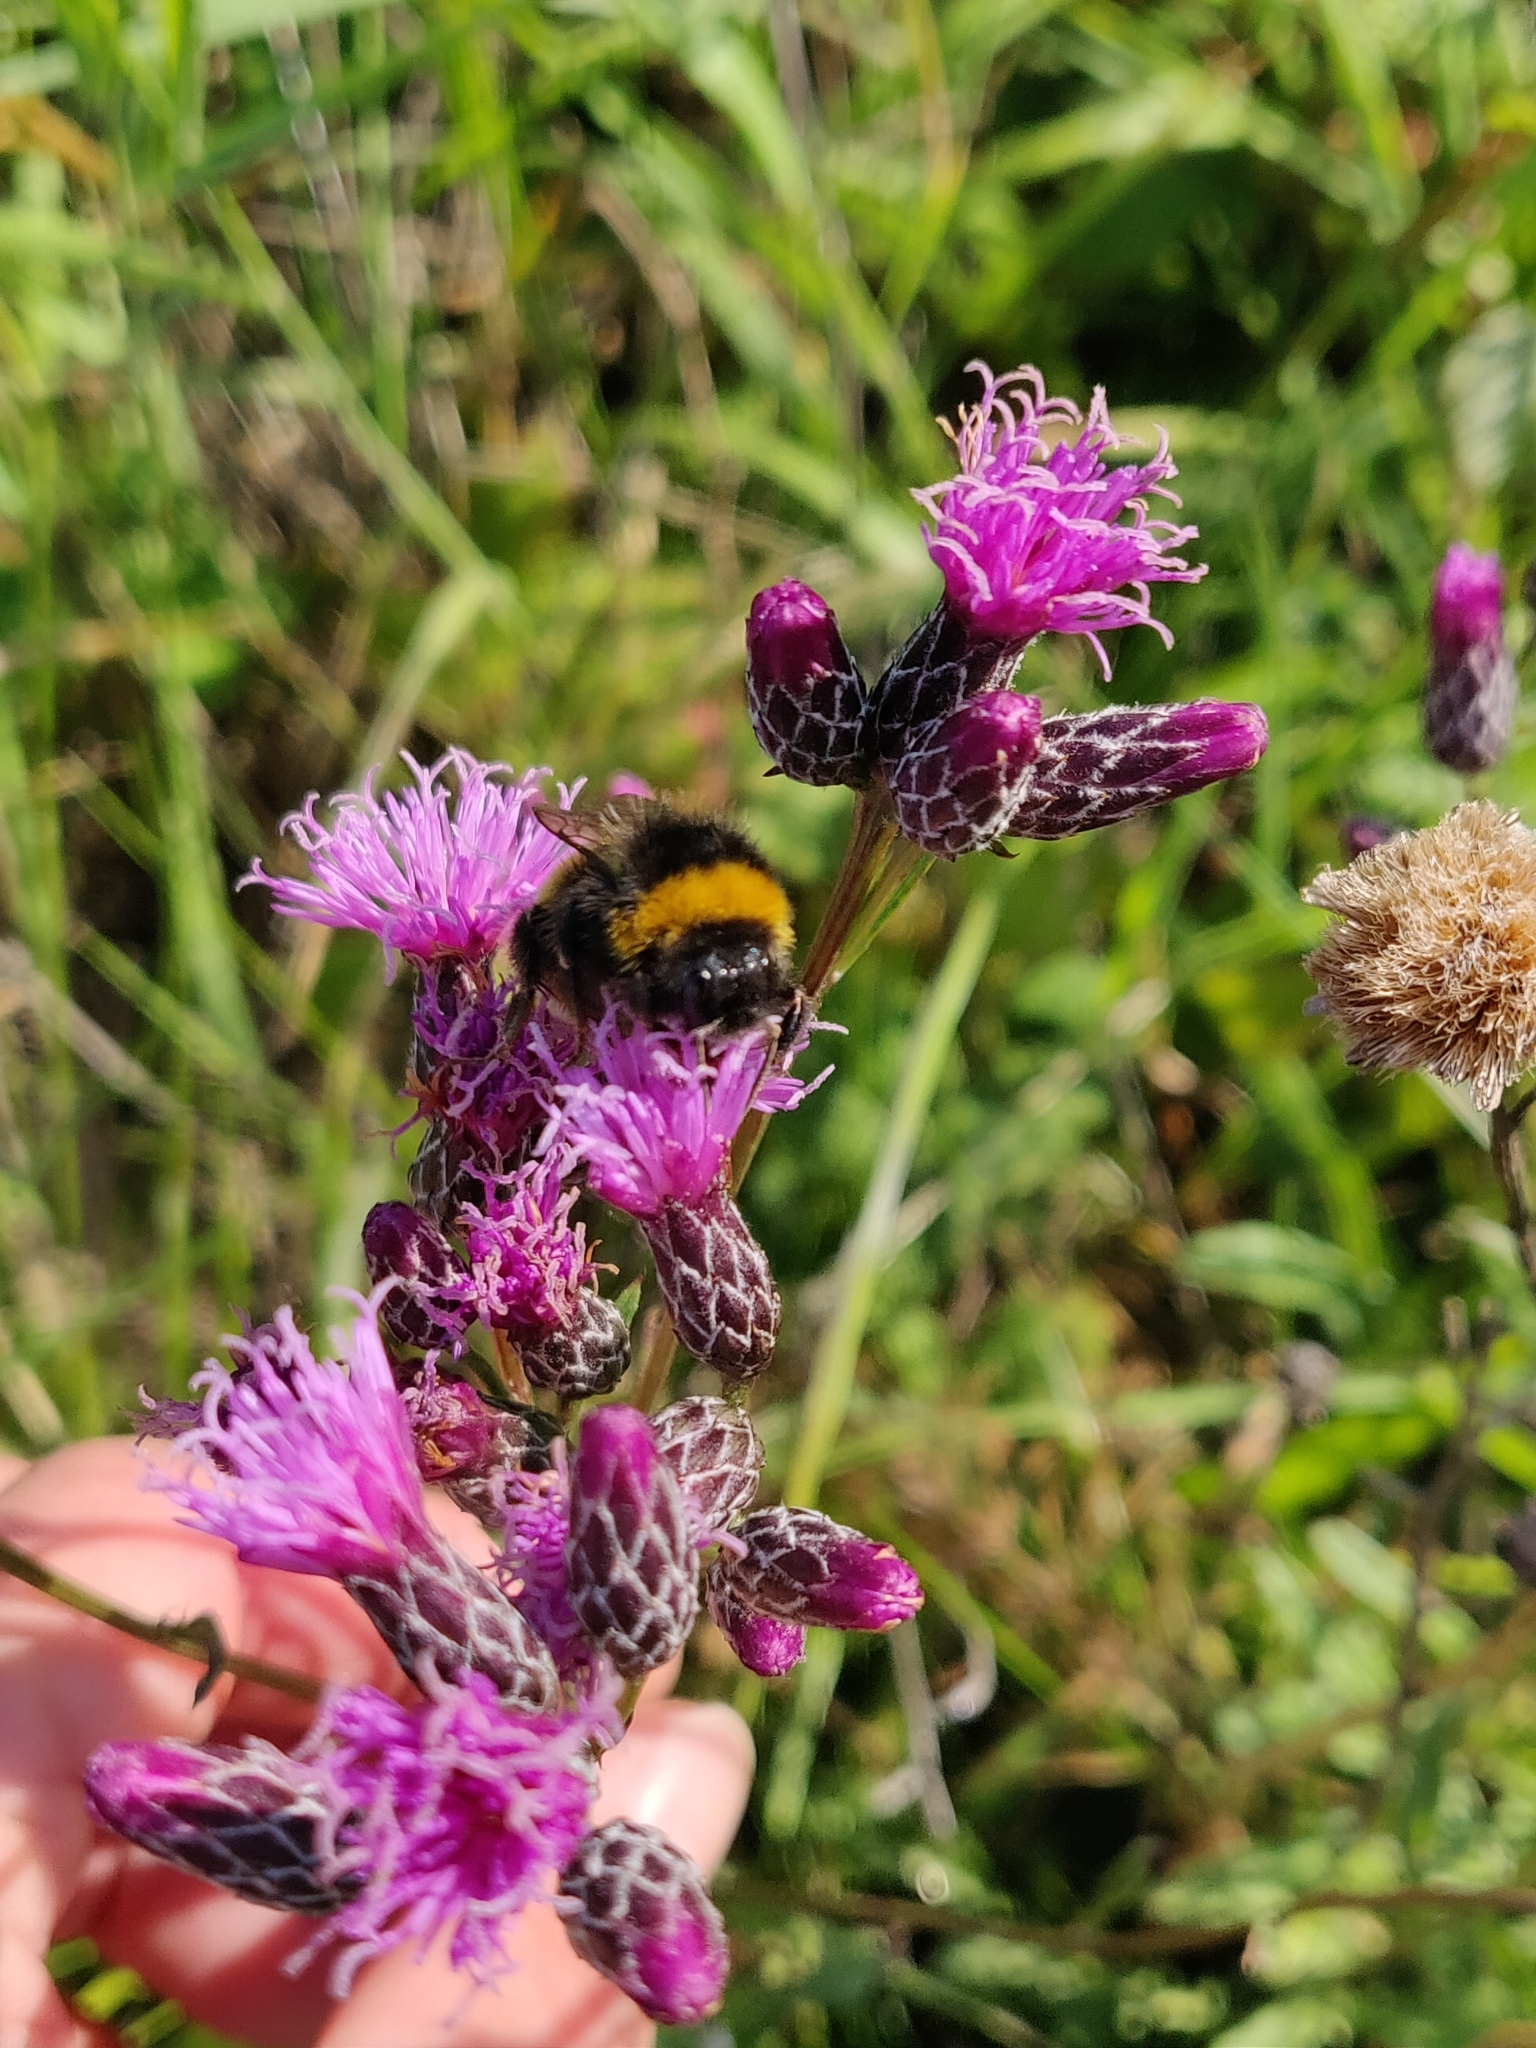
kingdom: Plantae
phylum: Tracheophyta
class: Magnoliopsida
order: Asterales
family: Asteraceae
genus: Serratula
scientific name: Serratula tinctoria
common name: Saw-wort
